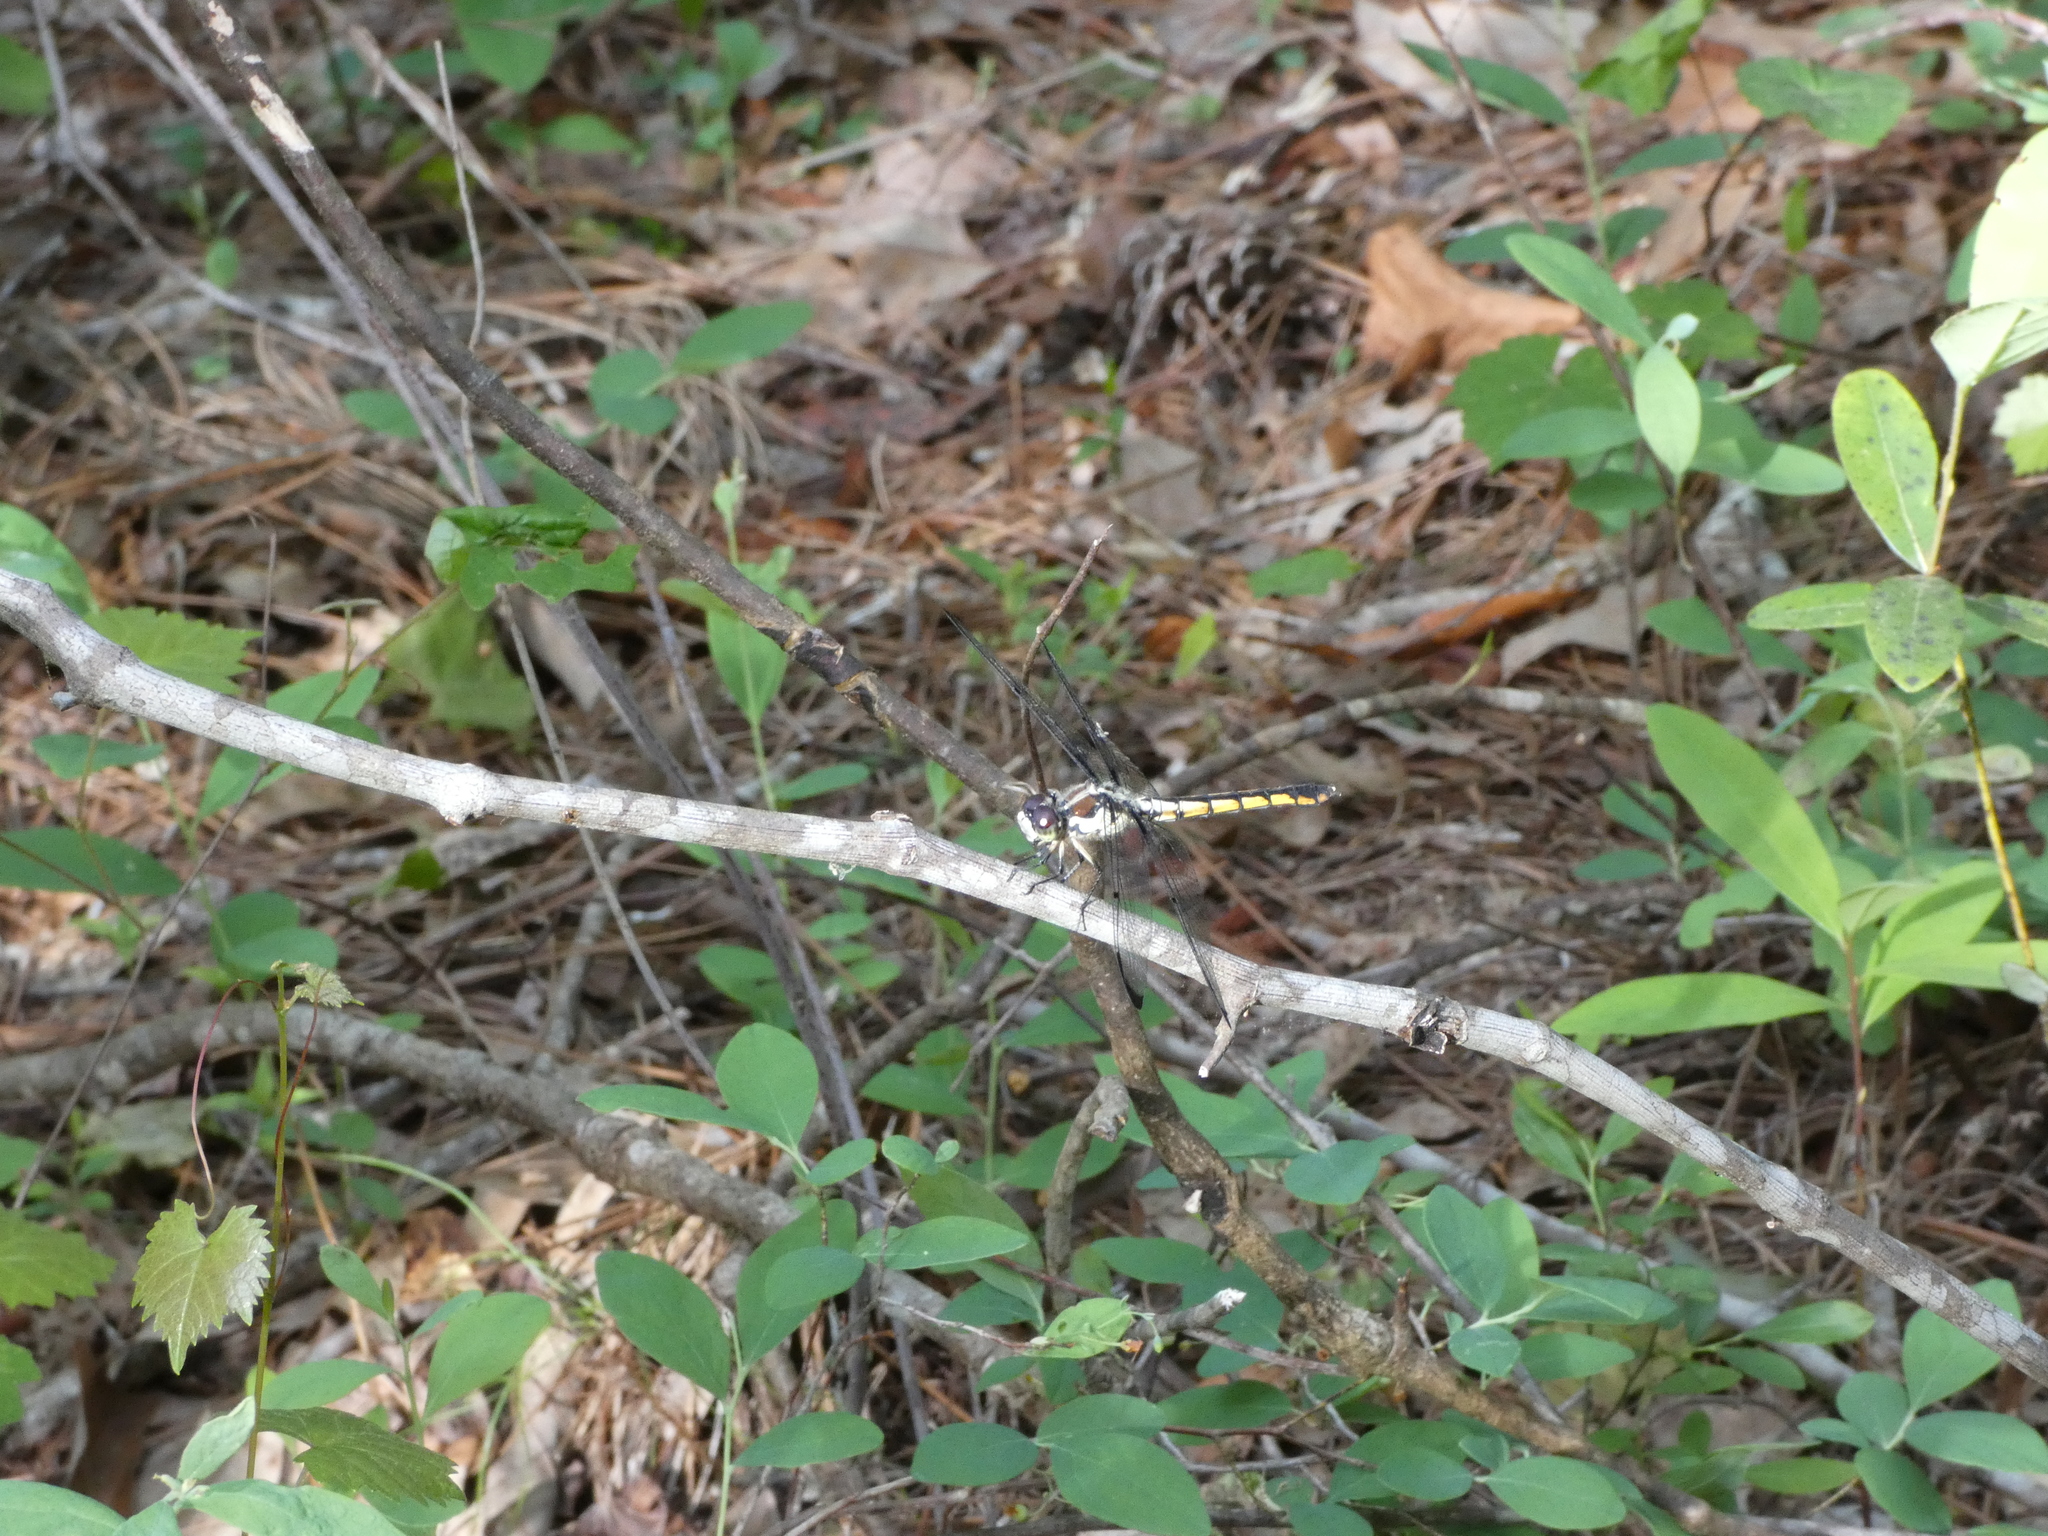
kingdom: Animalia
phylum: Arthropoda
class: Insecta
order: Odonata
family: Libellulidae
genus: Libellula
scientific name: Libellula vibrans
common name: Great blue skimmer
